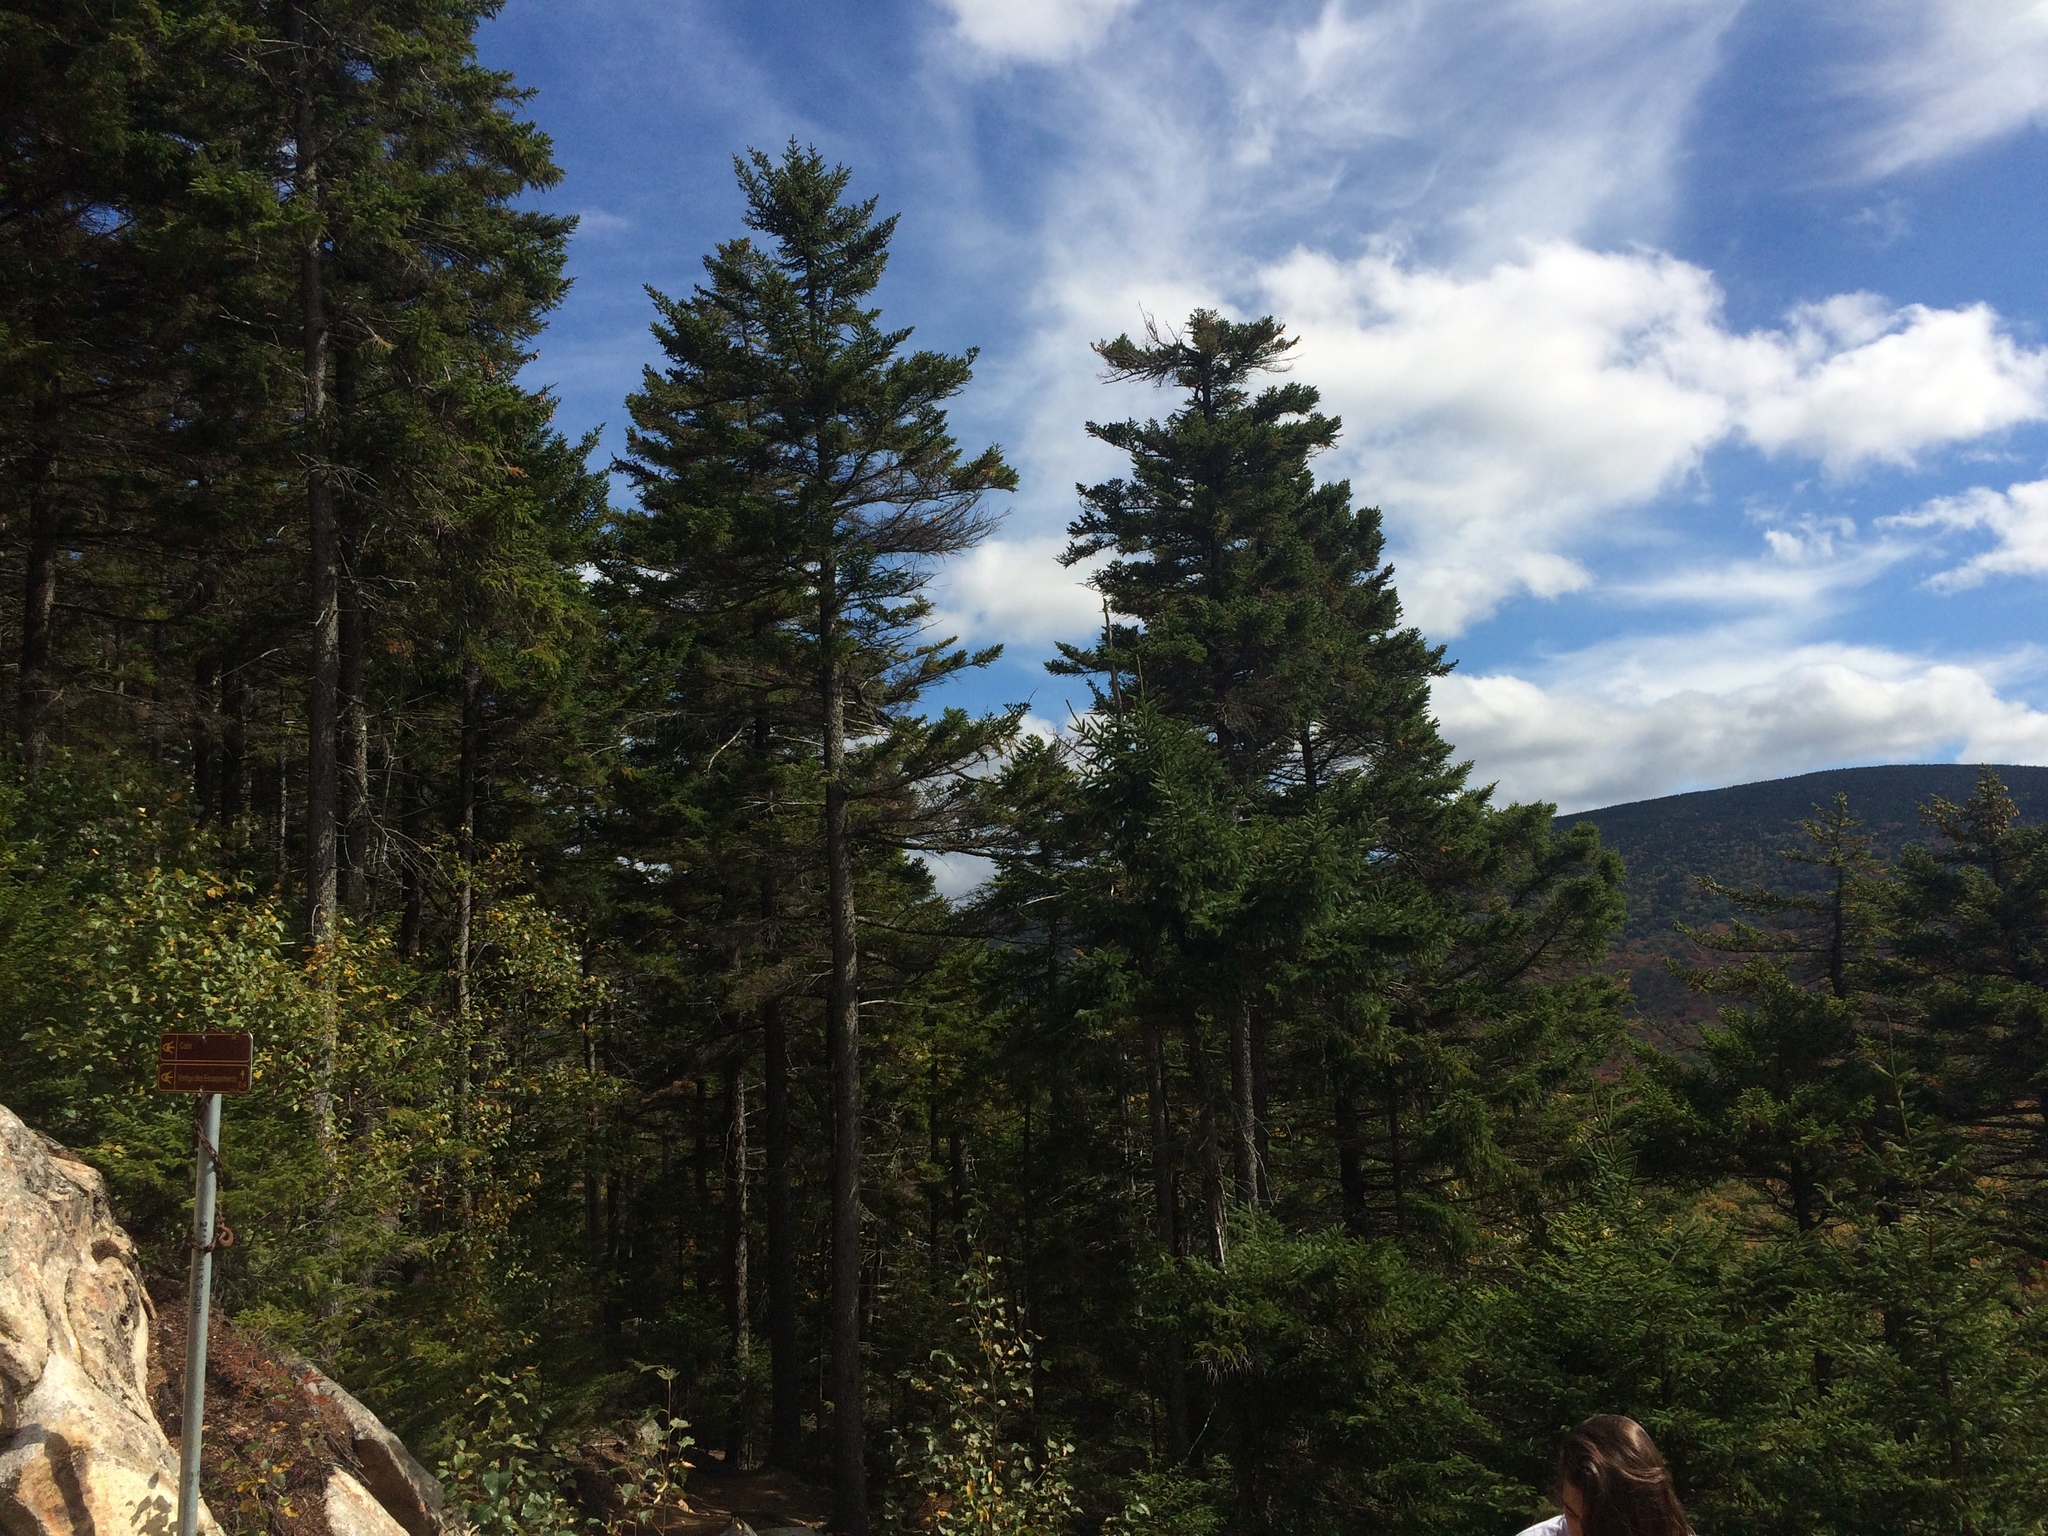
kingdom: Plantae
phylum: Tracheophyta
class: Pinopsida
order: Pinales
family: Pinaceae
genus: Picea
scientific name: Picea rubens
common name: Red spruce
